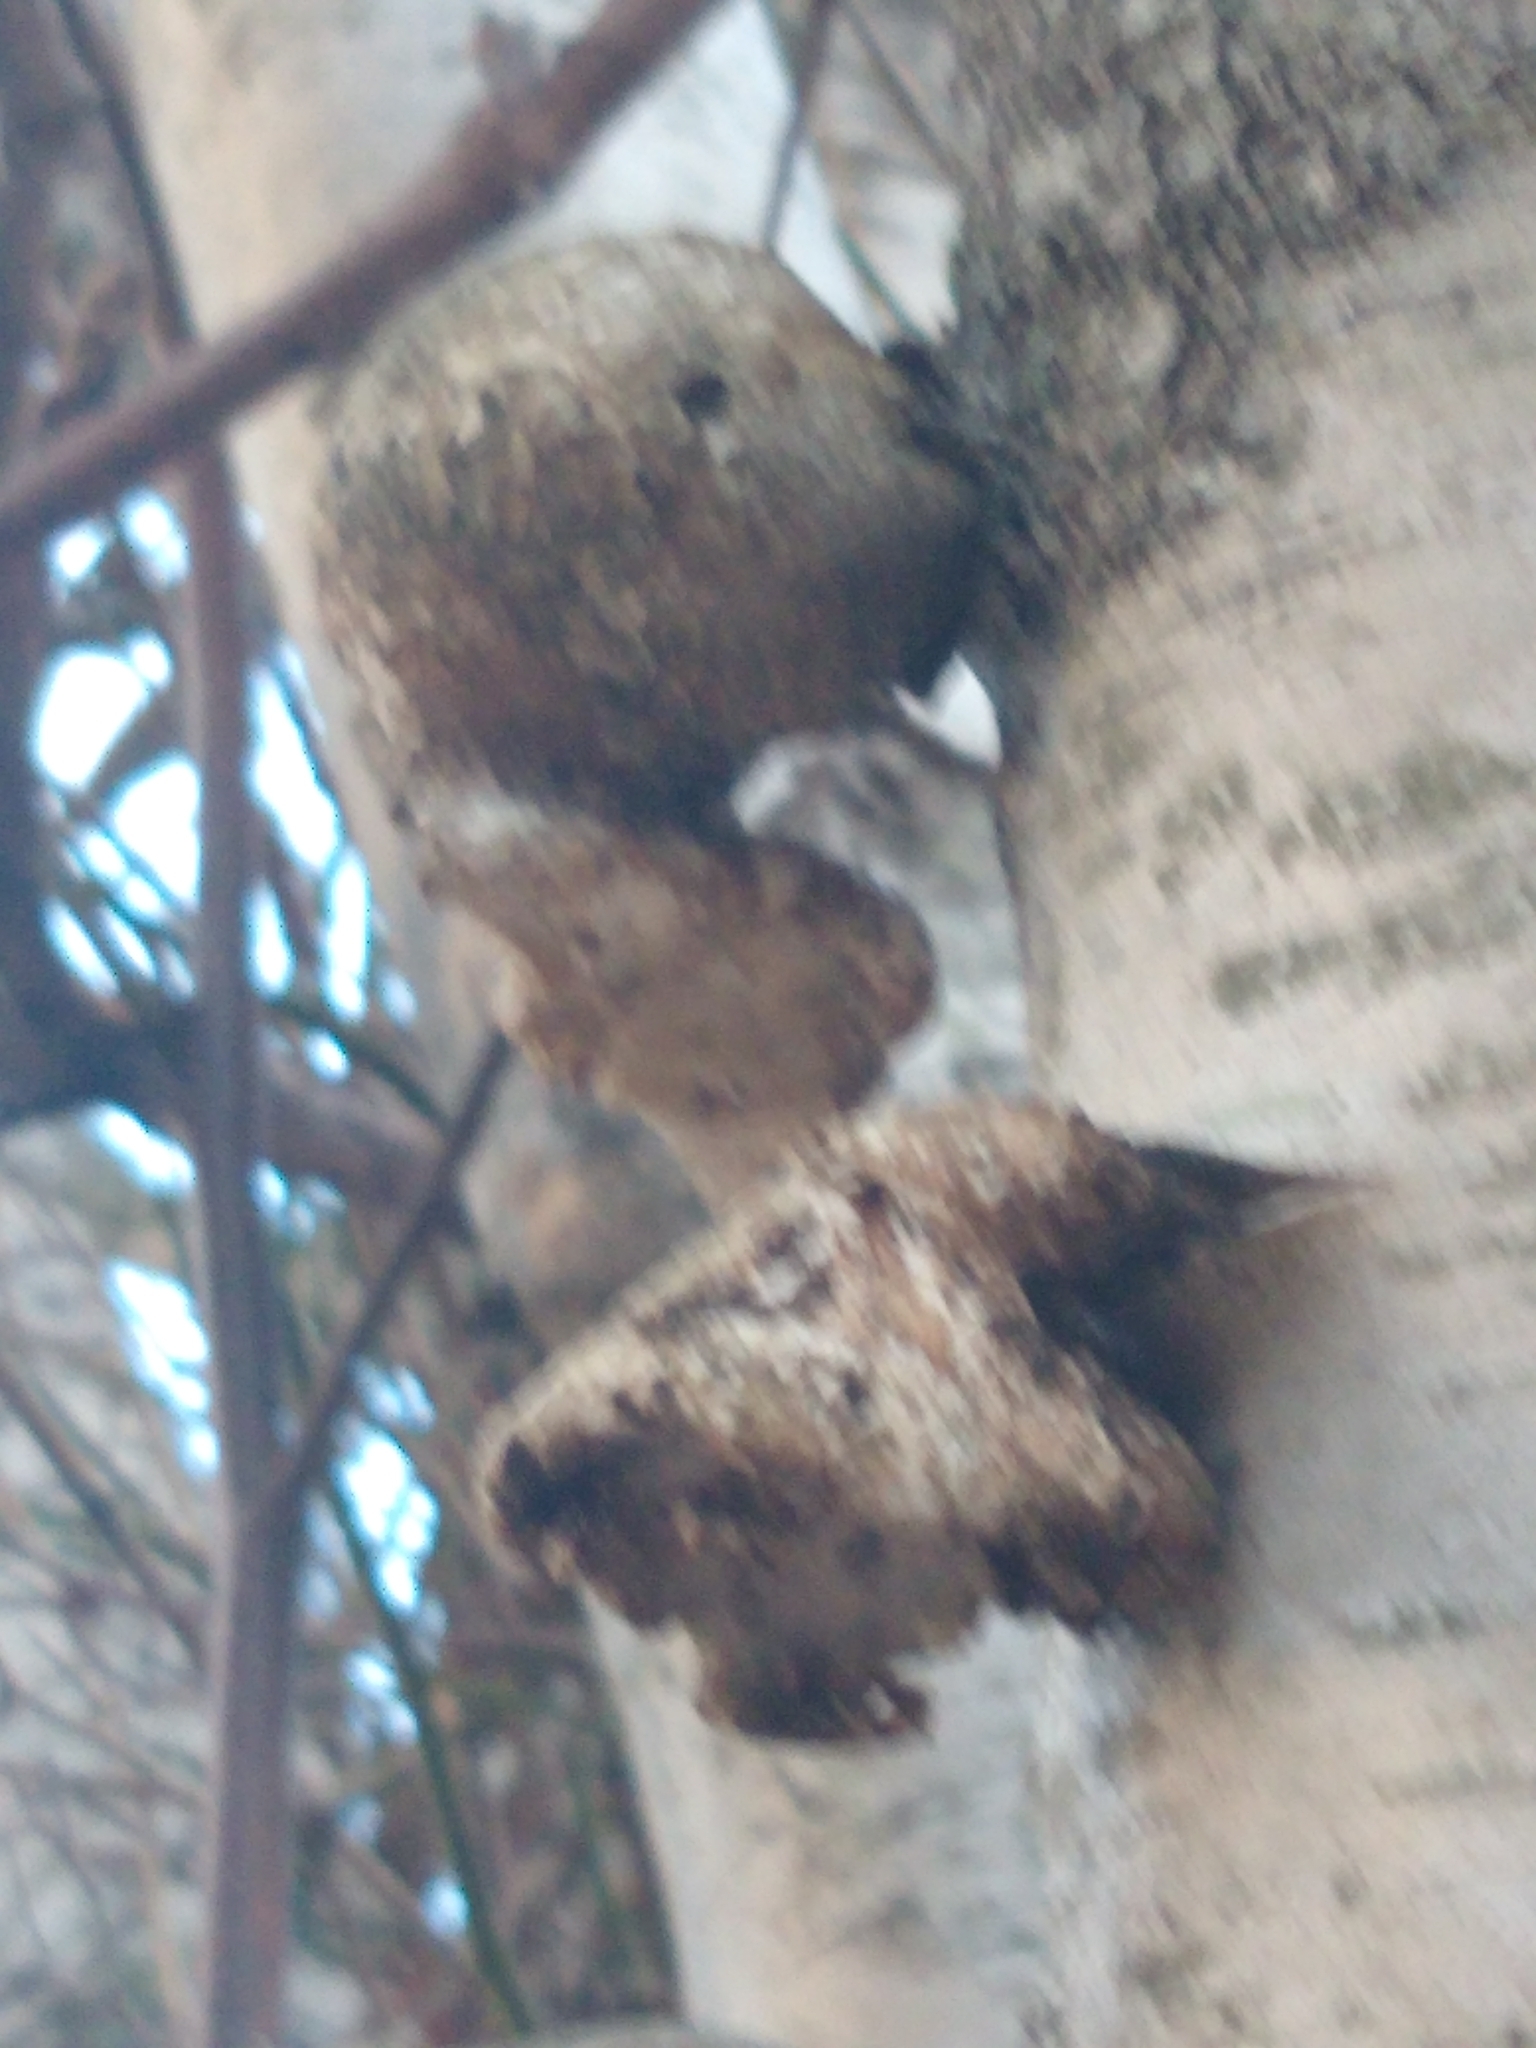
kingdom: Fungi
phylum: Basidiomycota
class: Agaricomycetes
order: Polyporales
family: Fomitopsidaceae
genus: Fomitopsis
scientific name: Fomitopsis betulina
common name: Birch polypore
